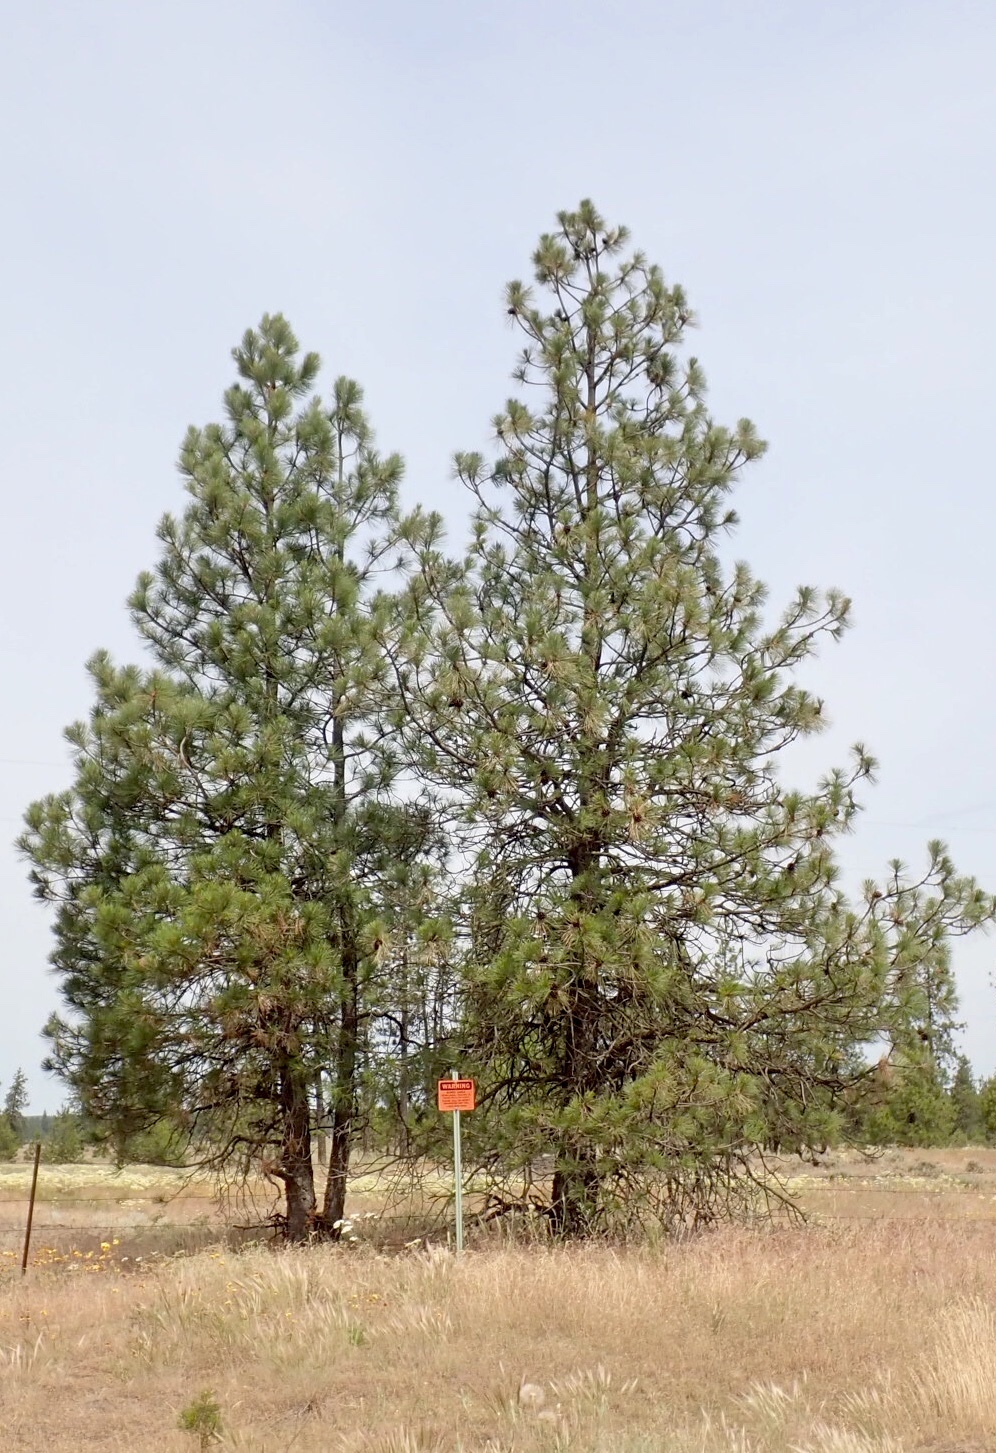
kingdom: Plantae
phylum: Tracheophyta
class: Pinopsida
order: Pinales
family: Pinaceae
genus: Pinus
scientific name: Pinus ponderosa
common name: Western yellow-pine
